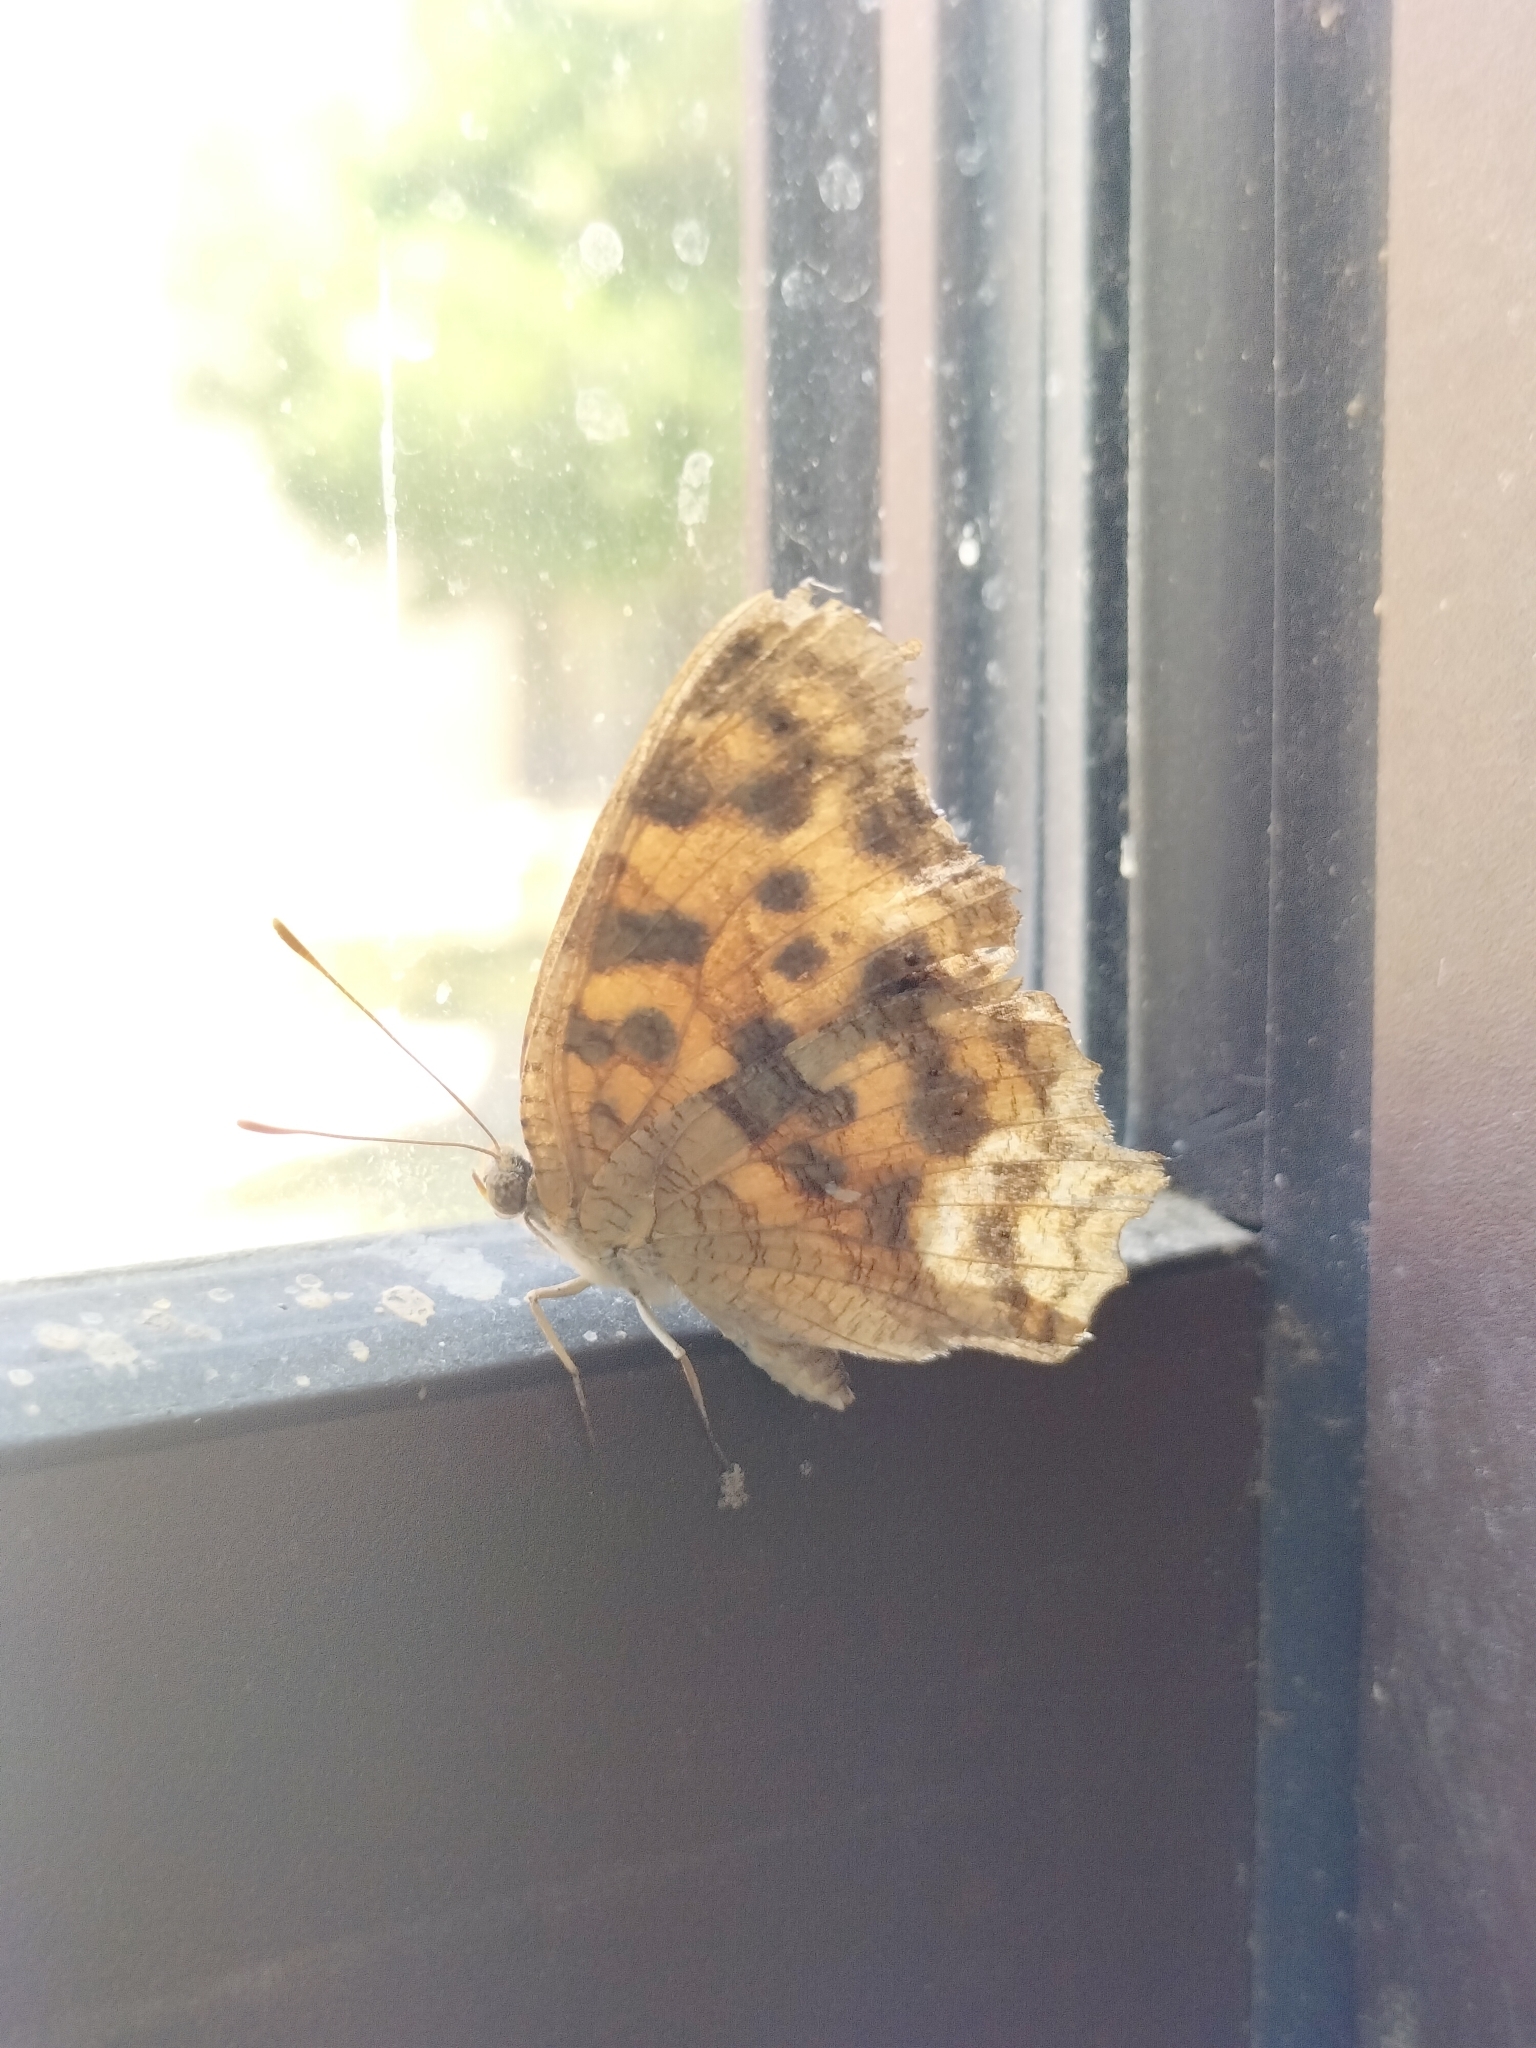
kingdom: Animalia
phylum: Arthropoda
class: Insecta
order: Lepidoptera
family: Nymphalidae
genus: Polygonia
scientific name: Polygonia c-aureum
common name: Asian comma
